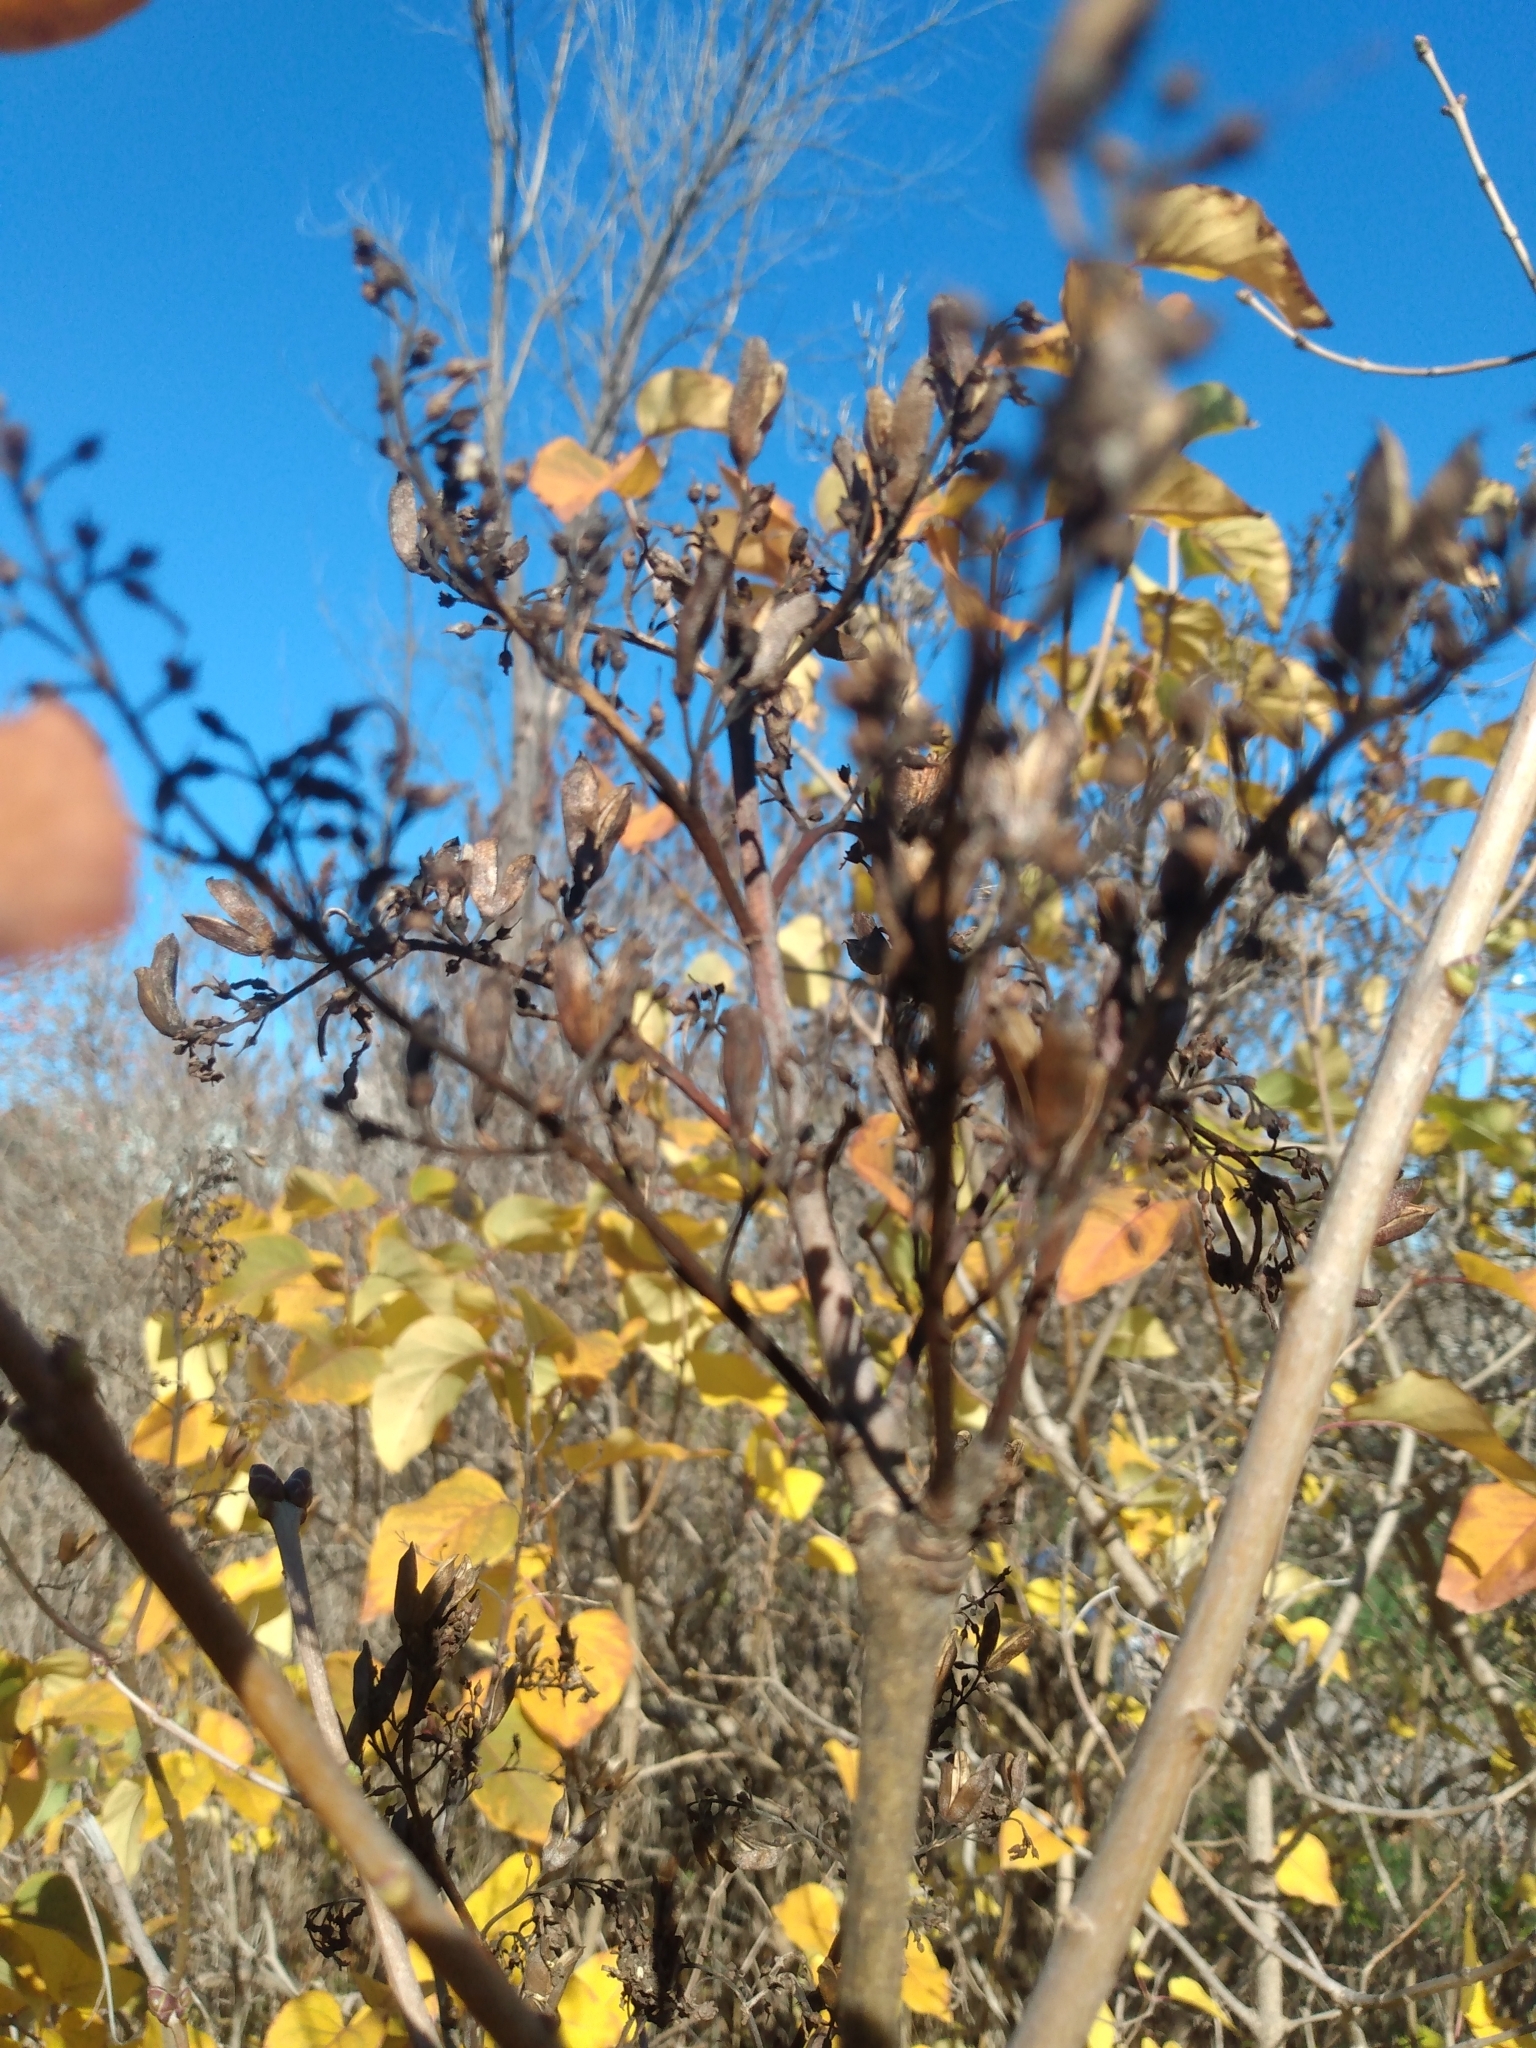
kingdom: Plantae
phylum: Tracheophyta
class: Magnoliopsida
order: Lamiales
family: Oleaceae
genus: Syringa
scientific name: Syringa vulgaris
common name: Common lilac
